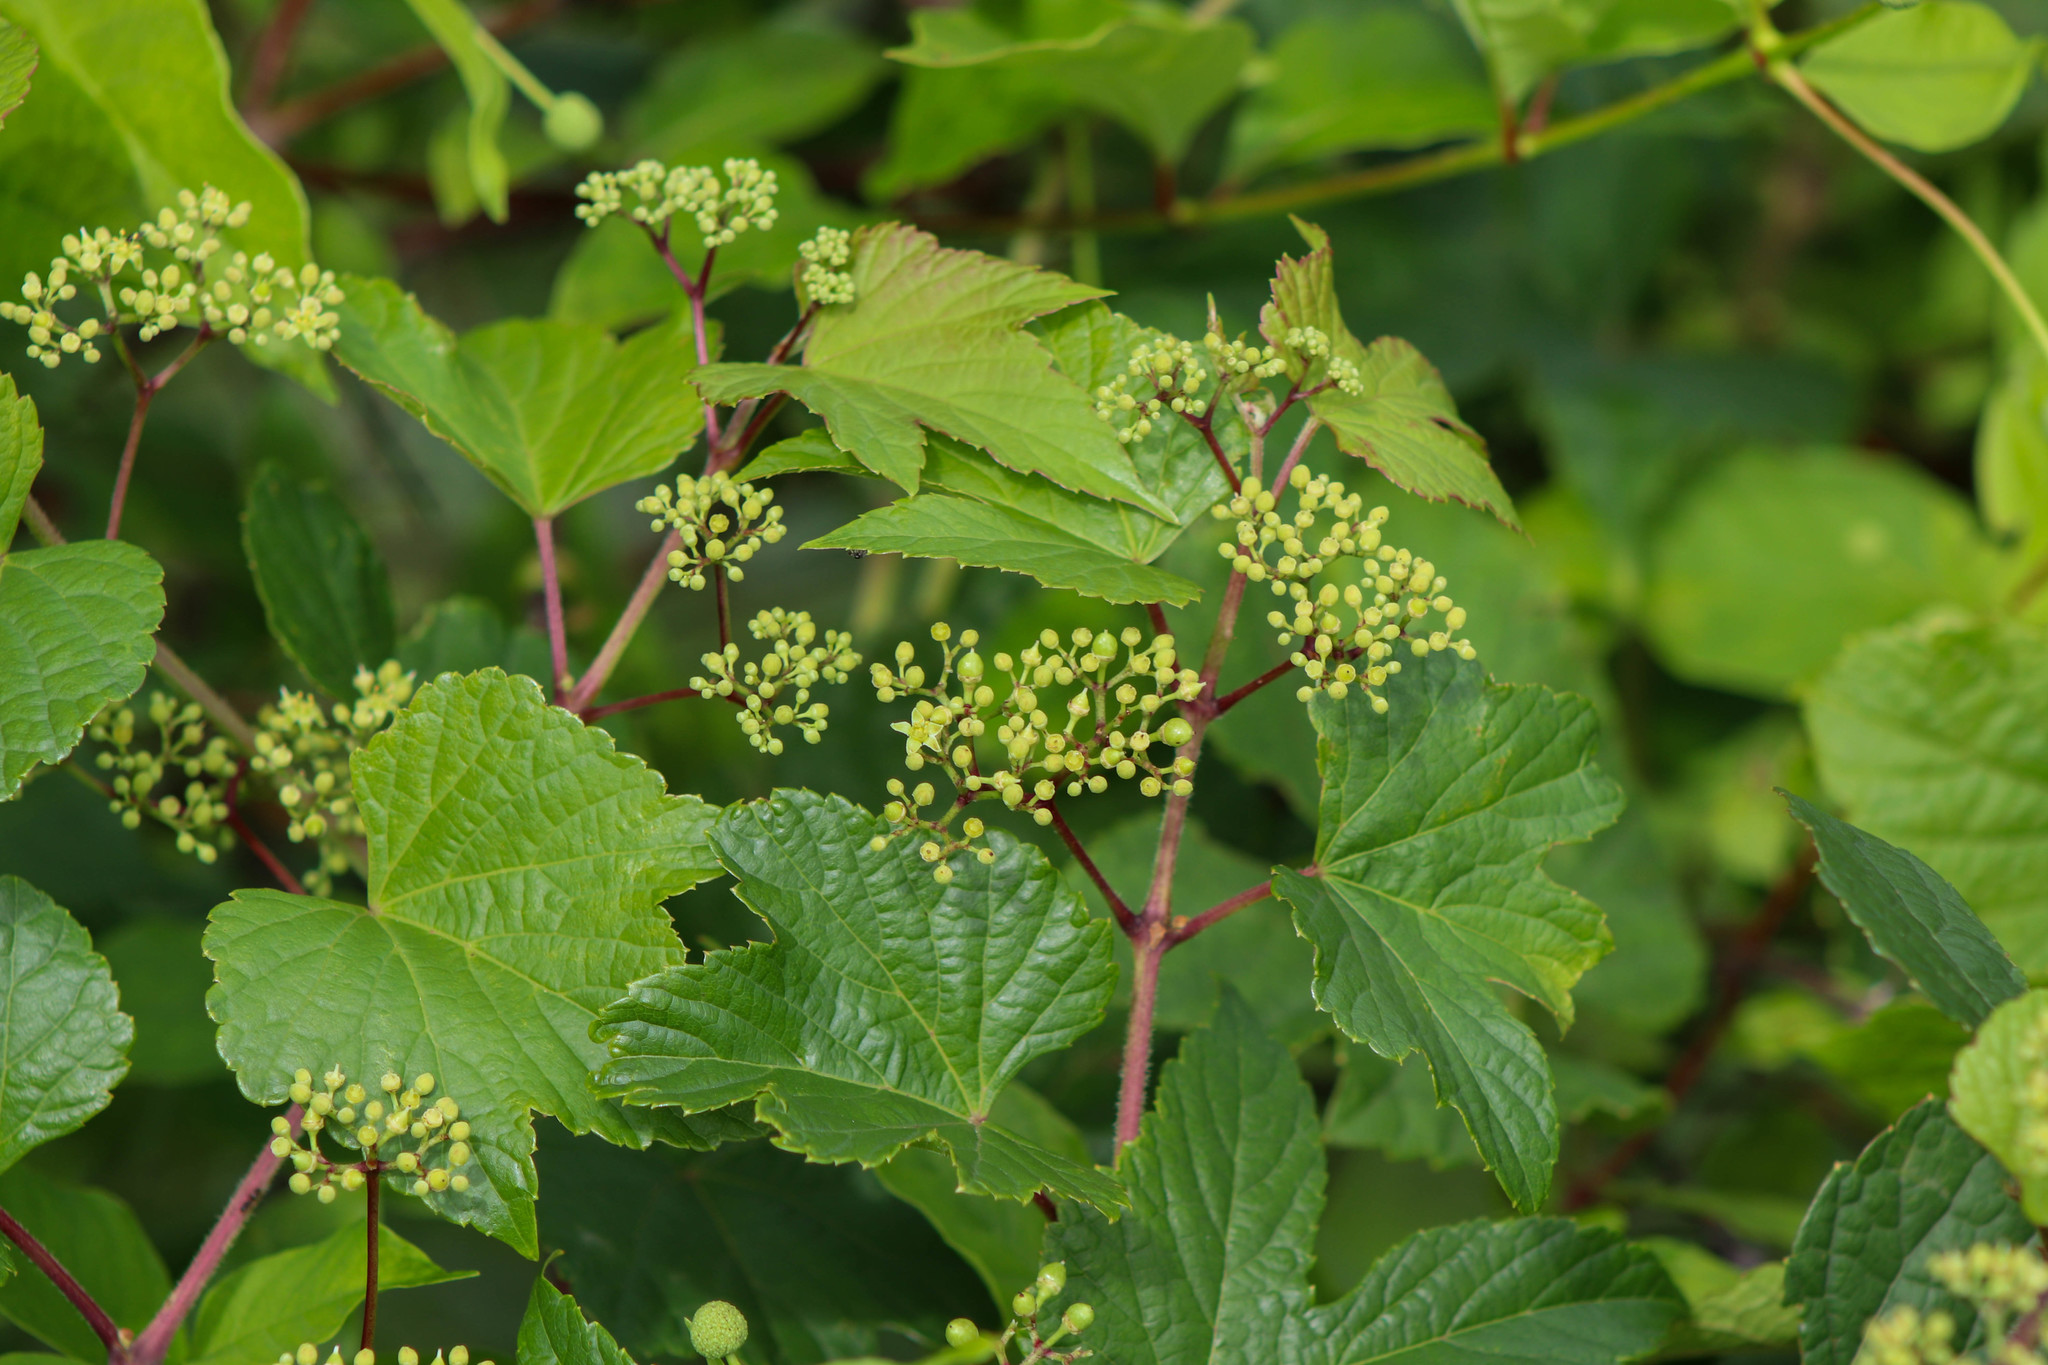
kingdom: Plantae
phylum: Tracheophyta
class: Magnoliopsida
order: Vitales
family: Vitaceae
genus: Ampelopsis
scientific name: Ampelopsis glandulosa
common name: Amur peppervine
